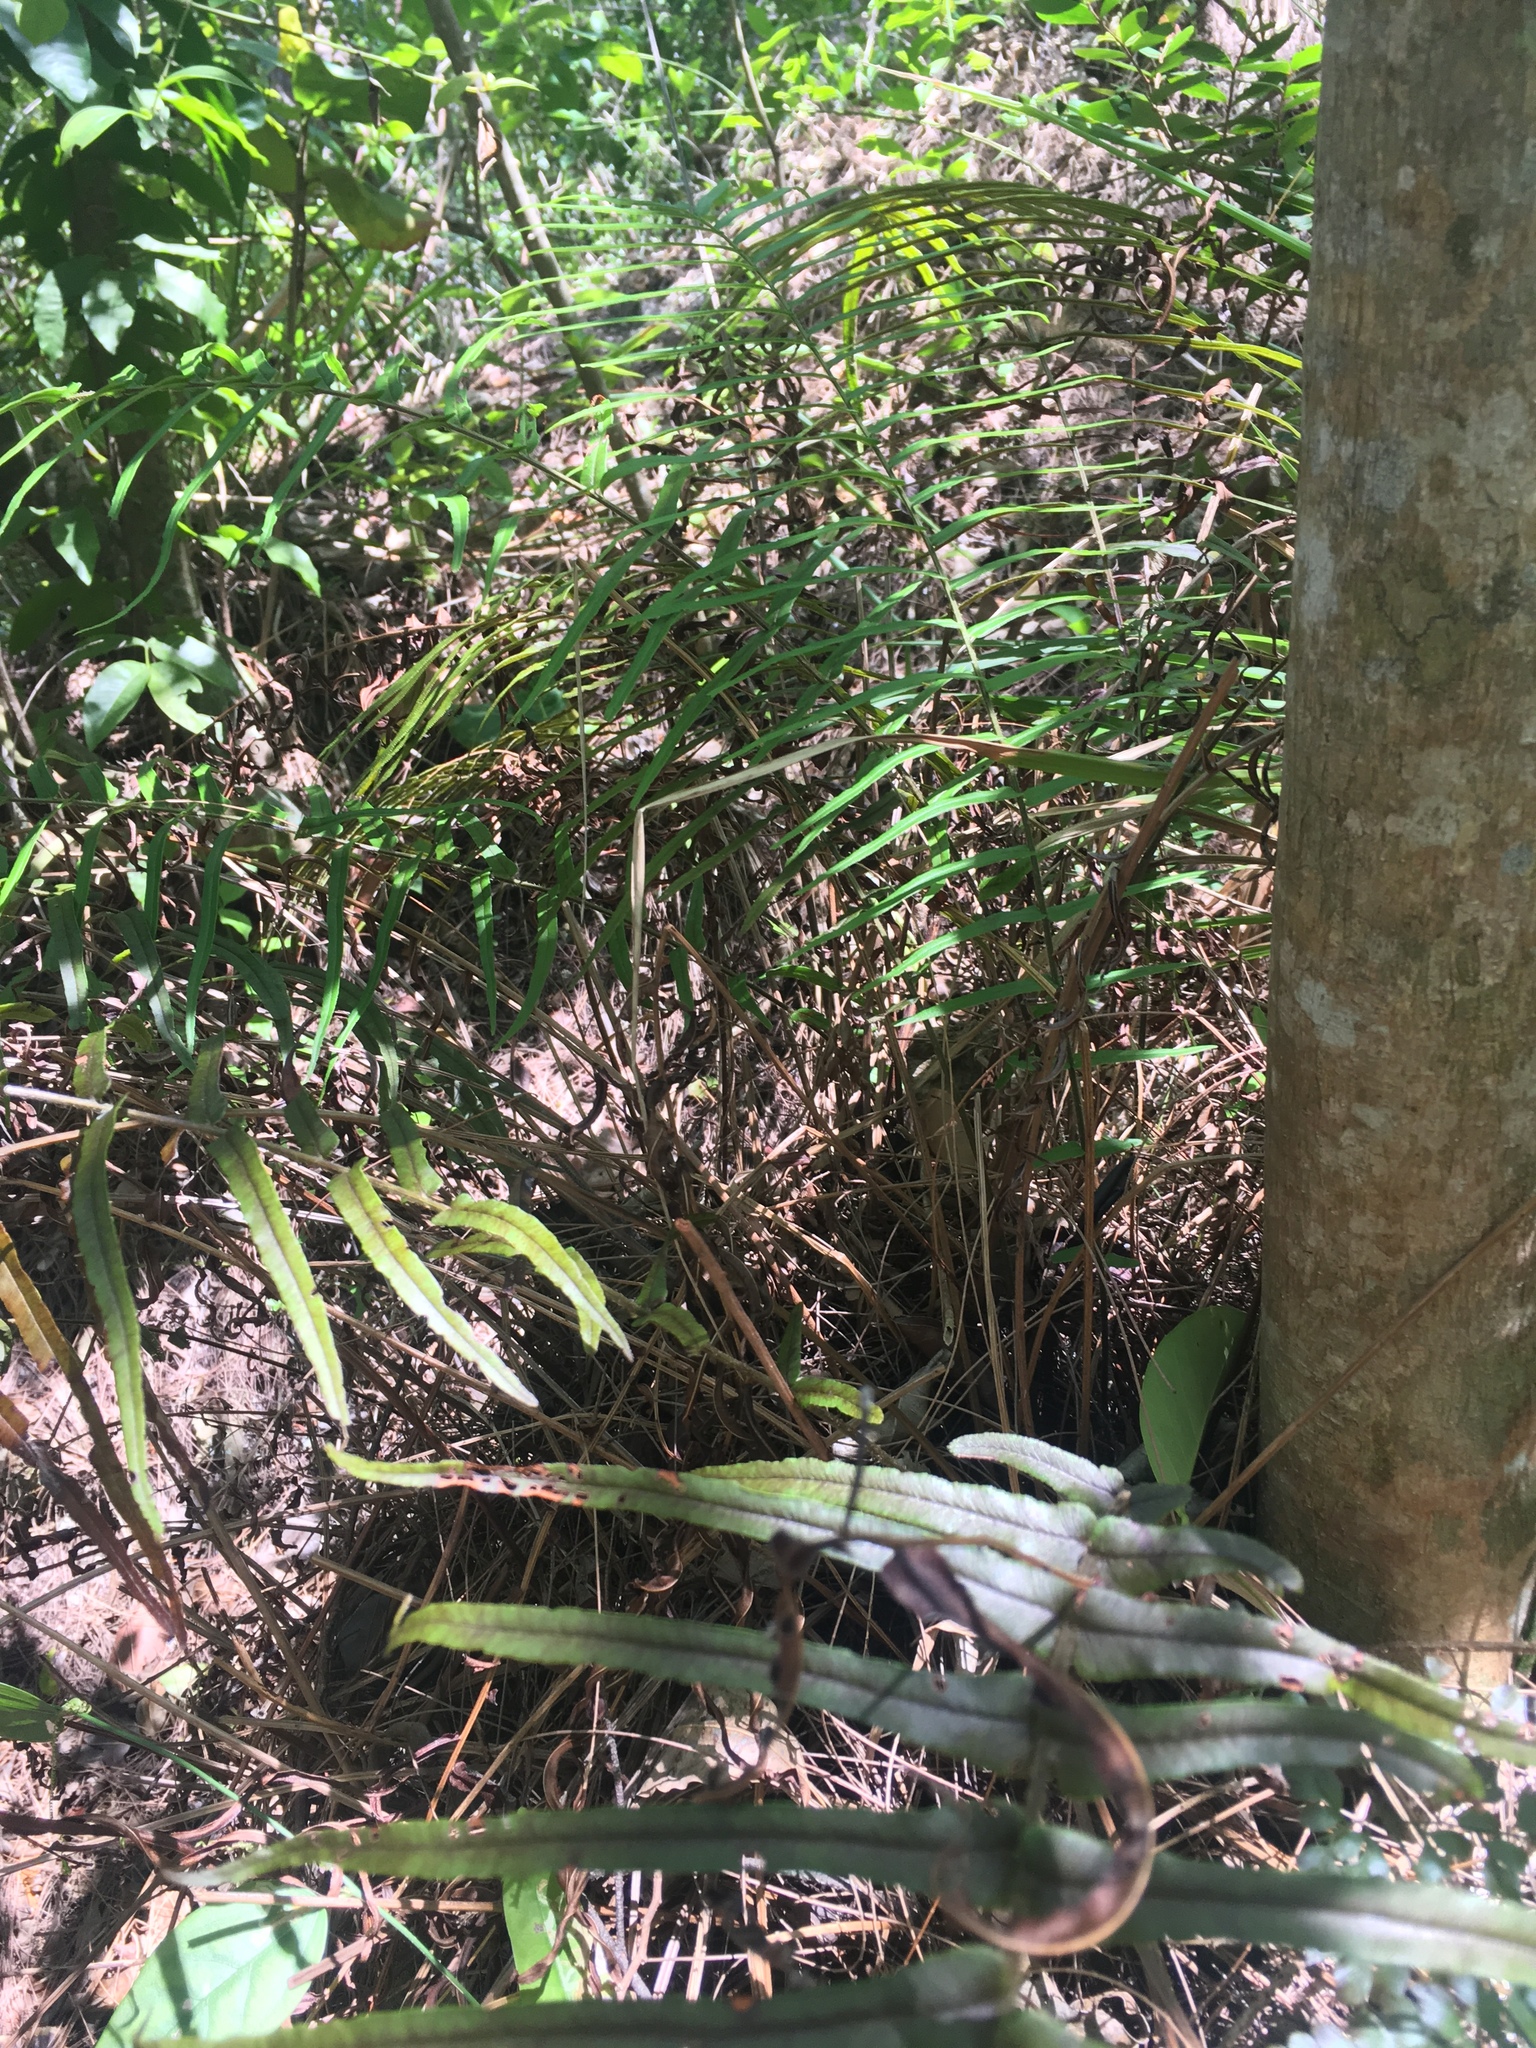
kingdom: Plantae
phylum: Tracheophyta
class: Polypodiopsida
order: Polypodiales
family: Pteridaceae
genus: Pteris
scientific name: Pteris vittata
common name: Ladder brake
